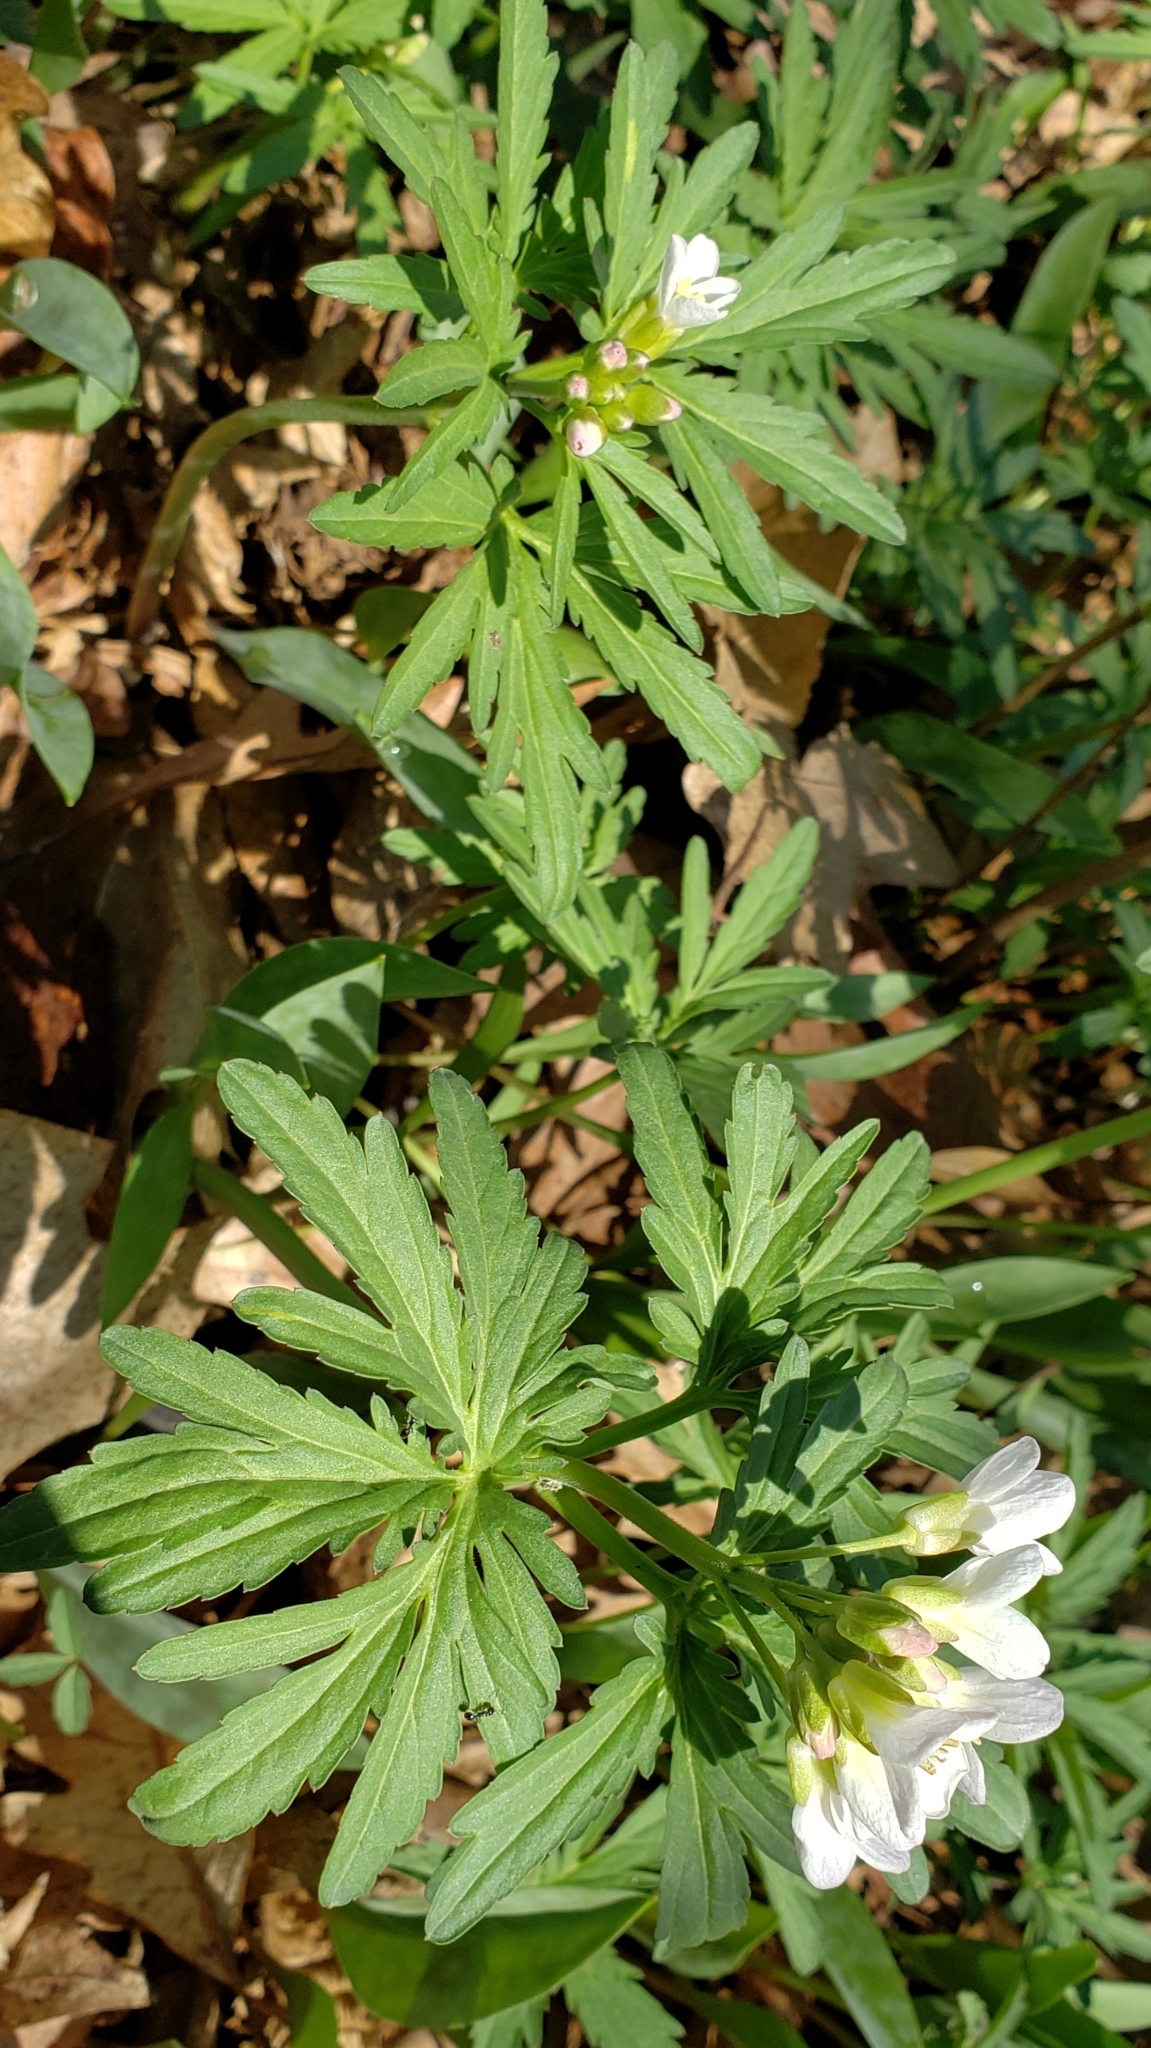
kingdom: Plantae
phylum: Tracheophyta
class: Magnoliopsida
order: Brassicales
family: Brassicaceae
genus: Cardamine
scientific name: Cardamine concatenata
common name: Cut-leaf toothcup
